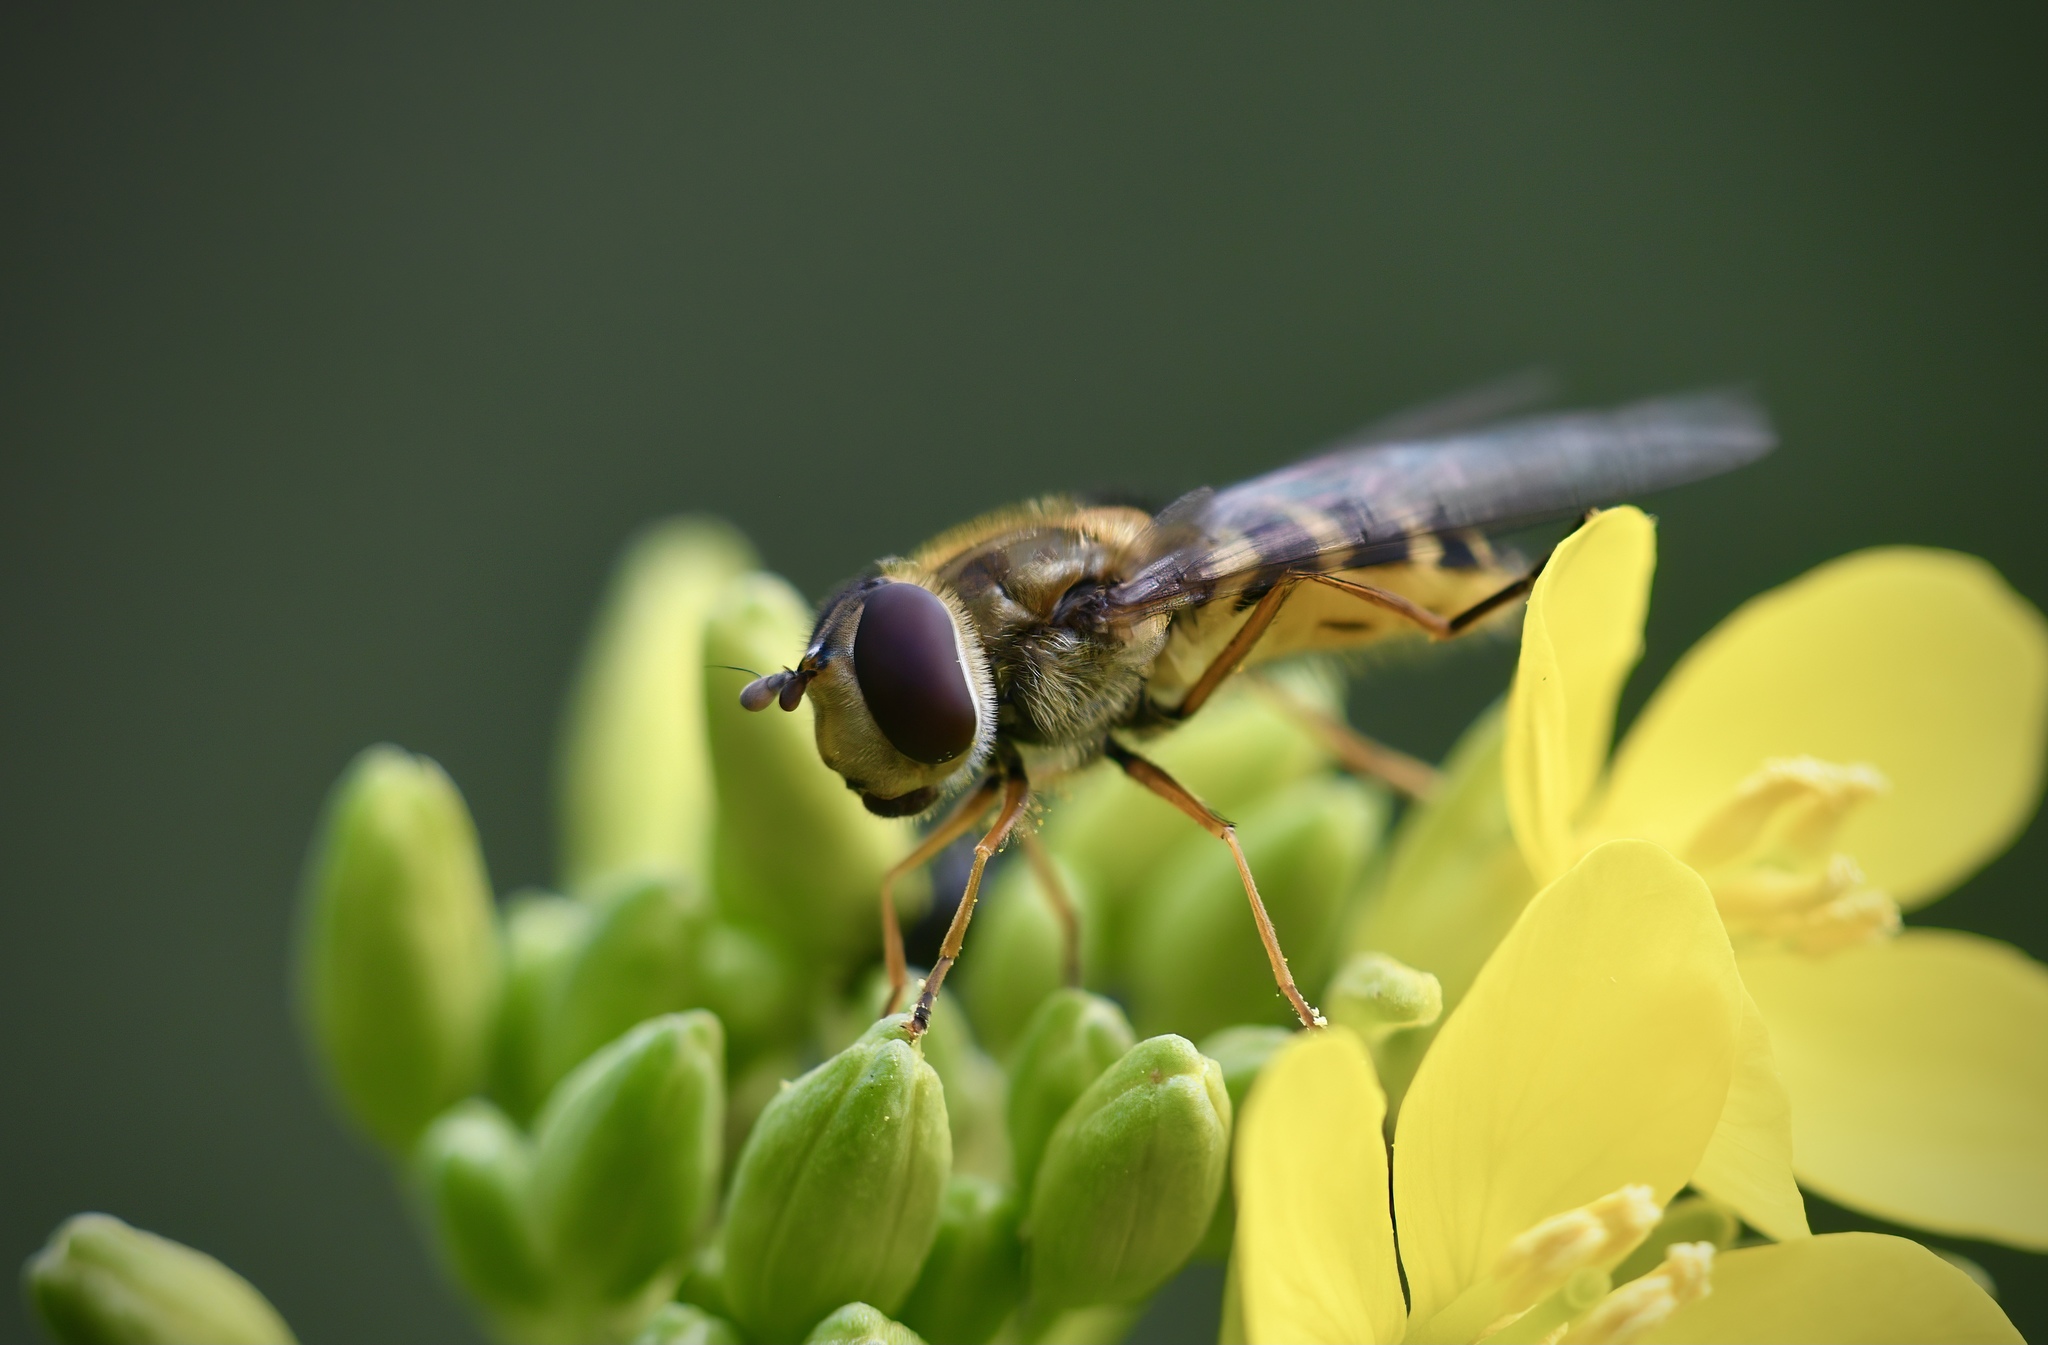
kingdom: Animalia
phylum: Arthropoda
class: Insecta
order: Diptera
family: Syrphidae
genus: Syrphus
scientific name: Syrphus ribesii
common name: Common flower fly
